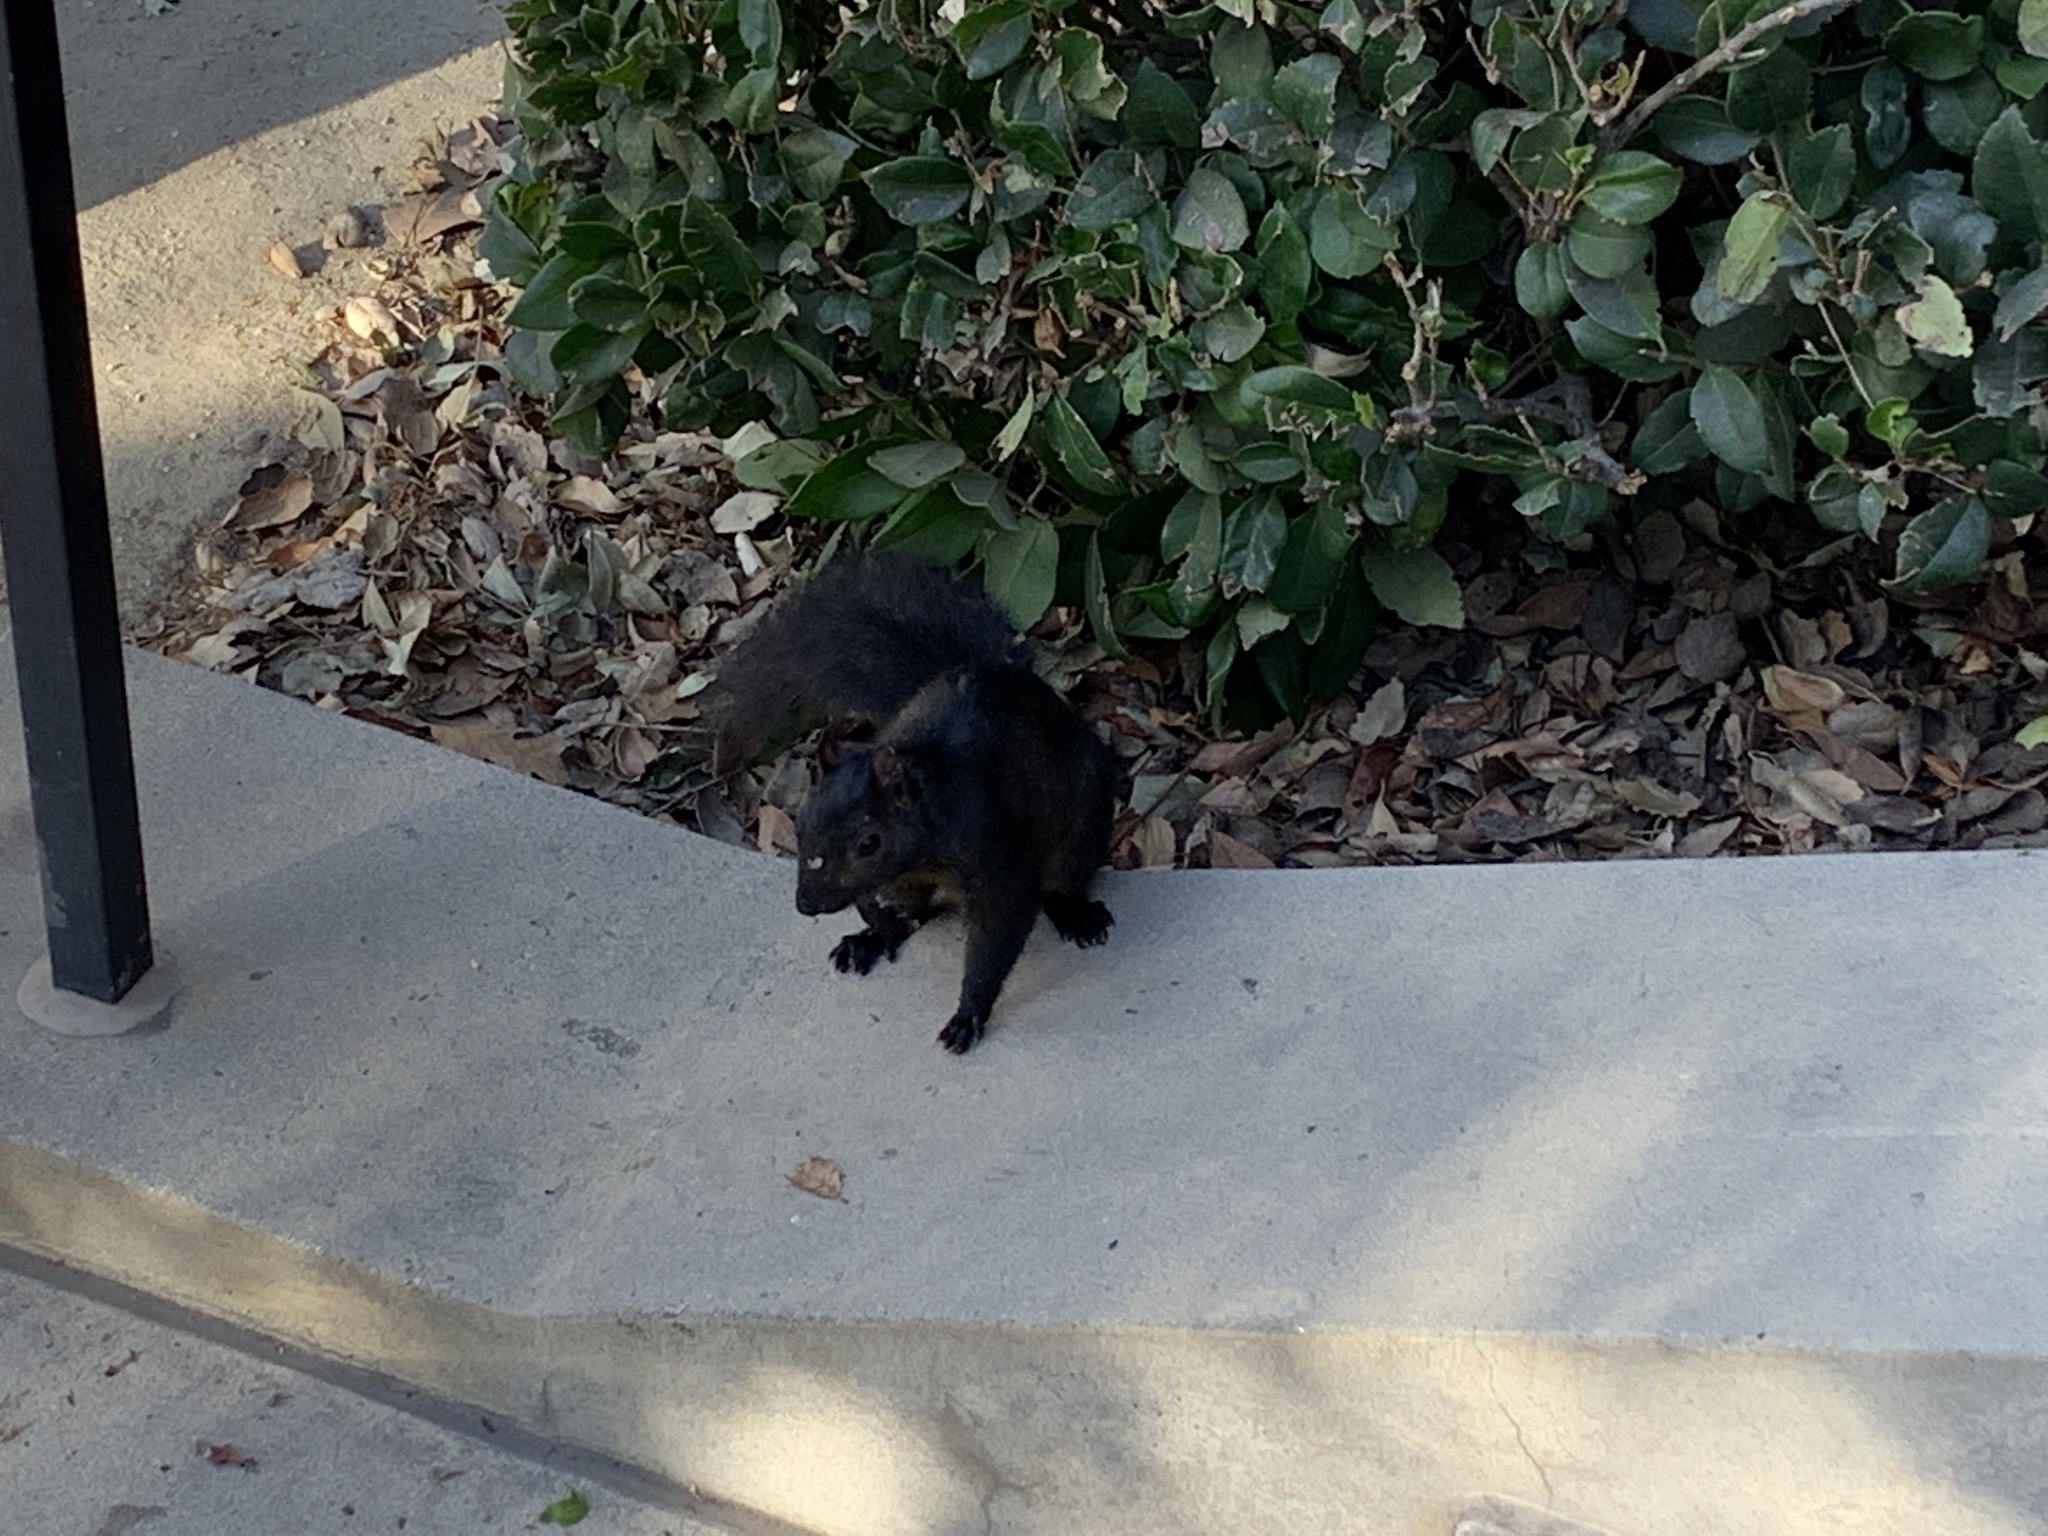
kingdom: Animalia
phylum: Chordata
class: Mammalia
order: Rodentia
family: Sciuridae
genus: Sciurus
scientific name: Sciurus carolinensis
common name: Eastern gray squirrel
